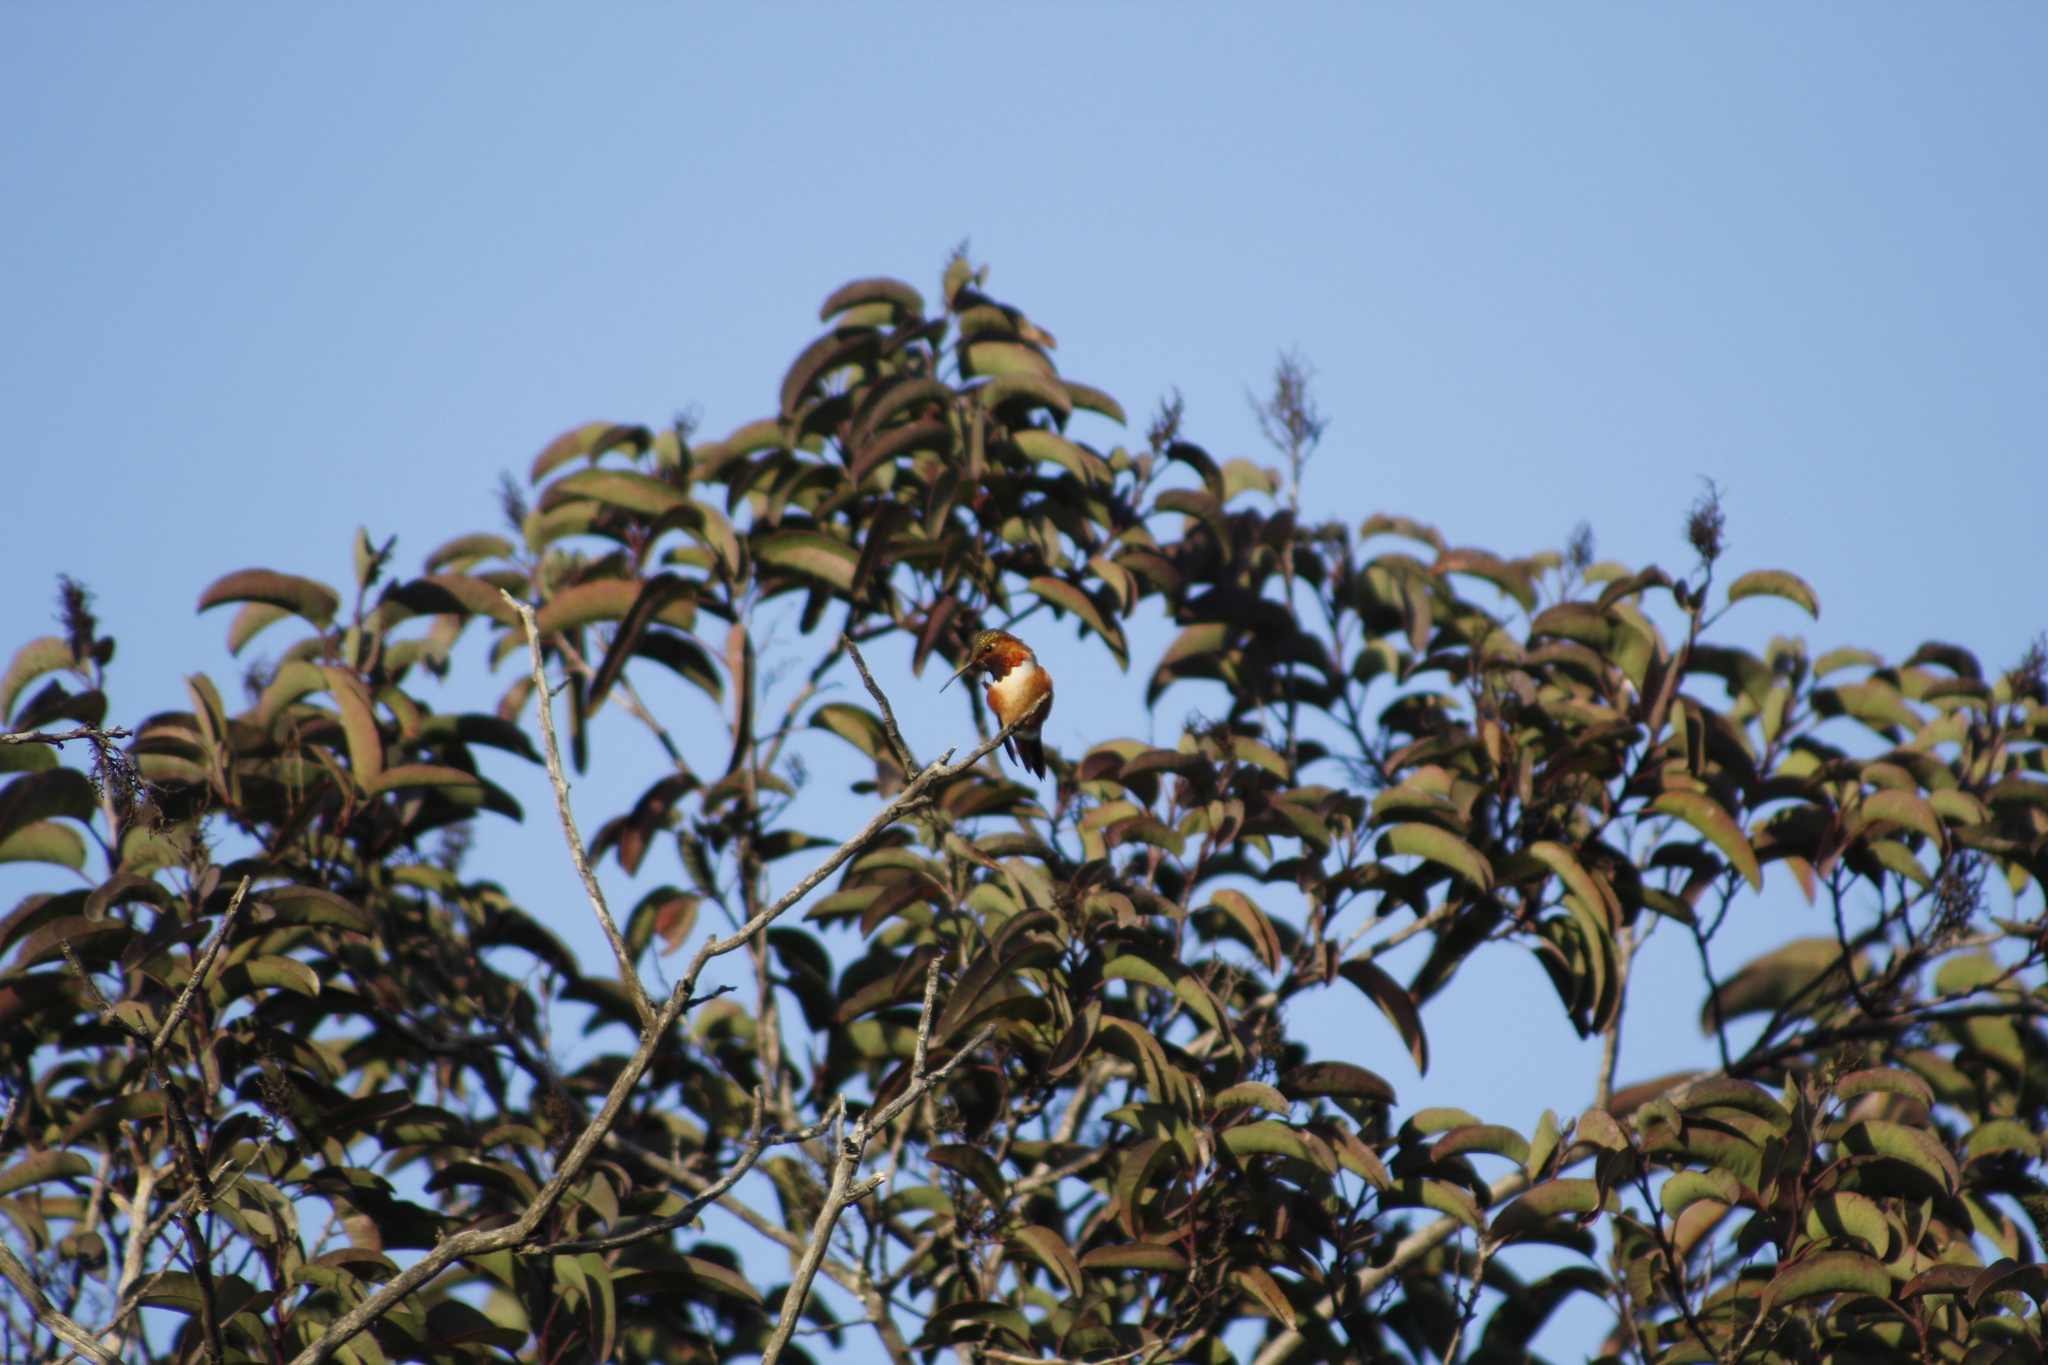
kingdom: Animalia
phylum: Chordata
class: Aves
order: Apodiformes
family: Trochilidae
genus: Selasphorus
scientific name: Selasphorus sasin
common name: Allen's hummingbird
